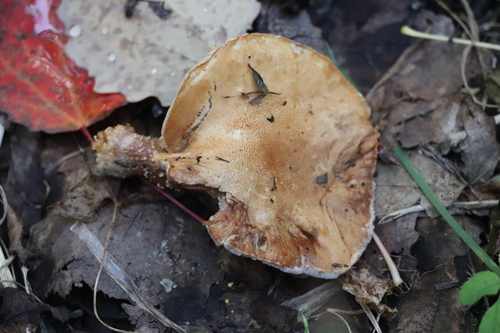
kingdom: Fungi
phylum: Basidiomycota
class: Agaricomycetes
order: Agaricales
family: Agaricaceae
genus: Cystodermella
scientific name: Cystodermella cinnabarina
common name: Cinnabar powdercap
